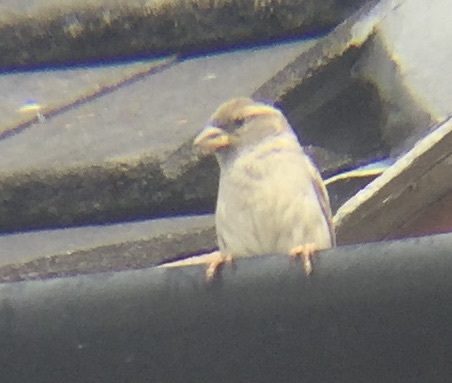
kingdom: Animalia
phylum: Chordata
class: Aves
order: Passeriformes
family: Passeridae
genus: Passer
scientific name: Passer domesticus
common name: House sparrow
